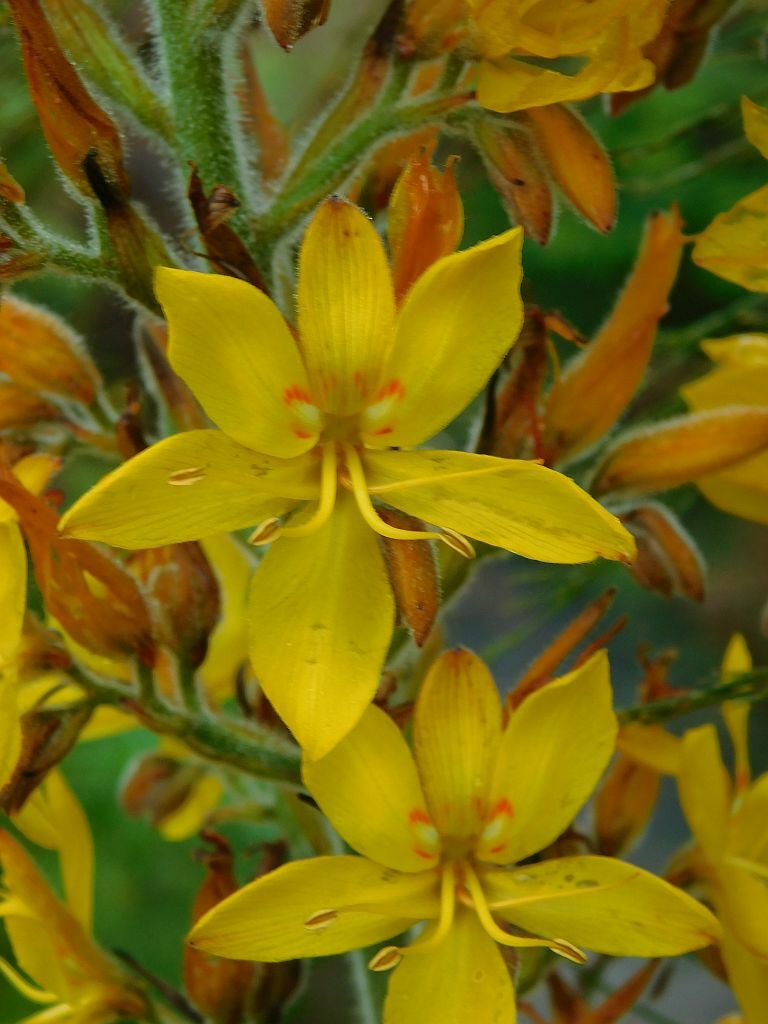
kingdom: Plantae
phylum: Tracheophyta
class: Liliopsida
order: Commelinales
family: Haemodoraceae
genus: Wachendorfia
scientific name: Wachendorfia thyrsiflora
